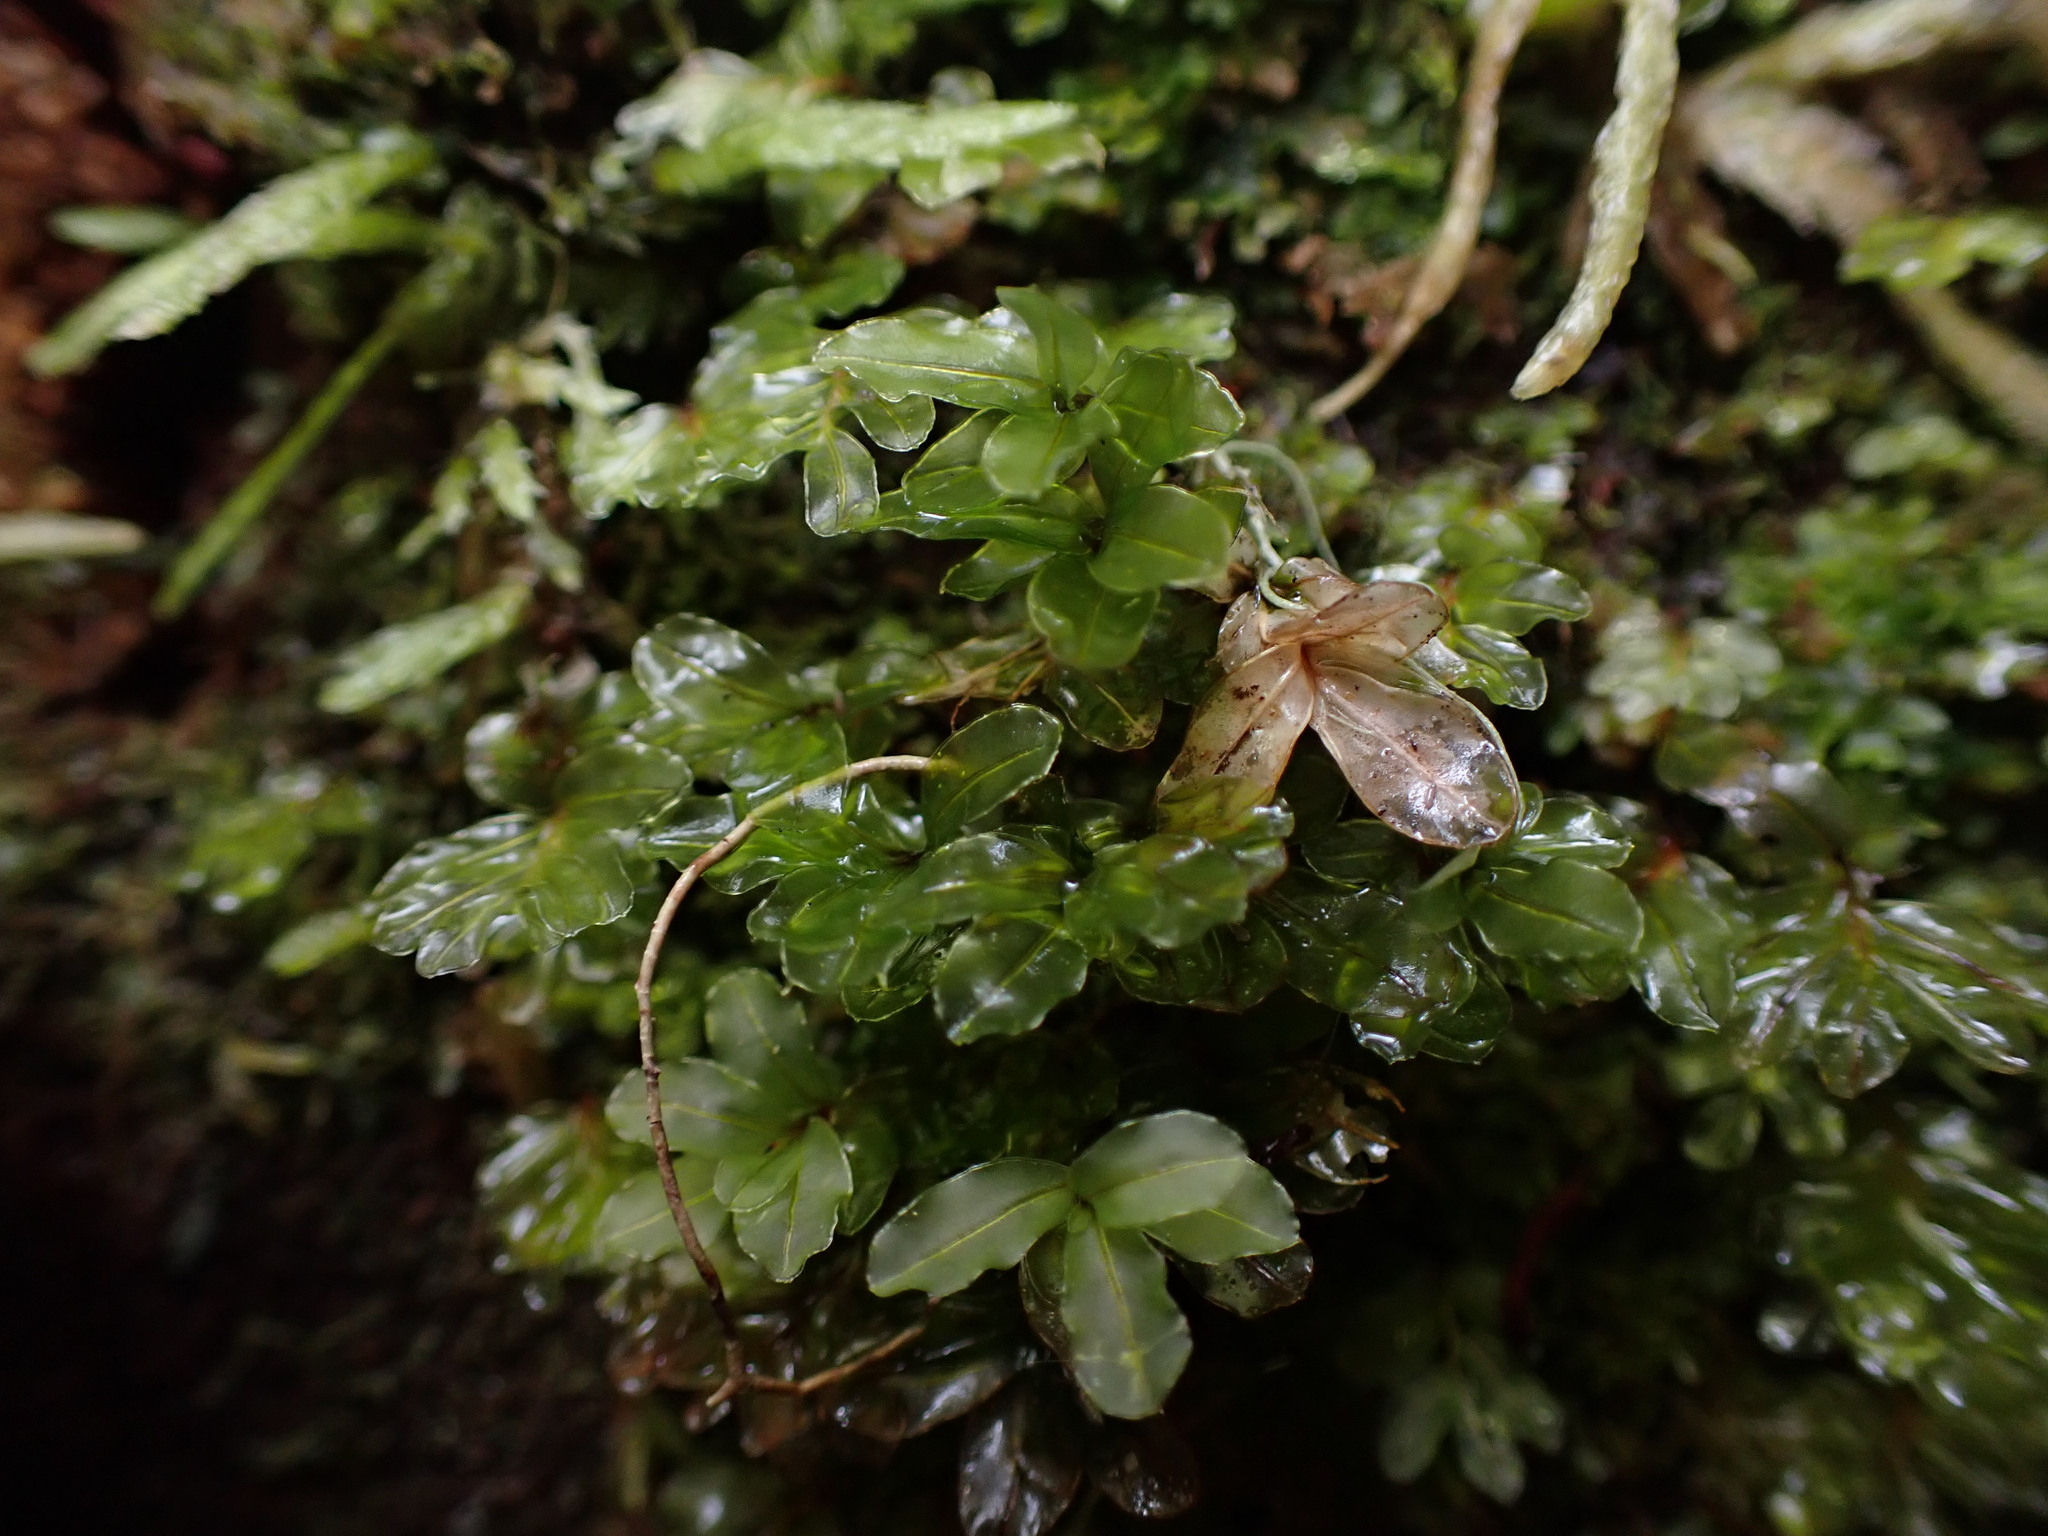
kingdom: Plantae
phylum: Bryophyta
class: Bryopsida
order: Bryales
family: Mniaceae
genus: Rhizomnium
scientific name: Rhizomnium glabrescens
